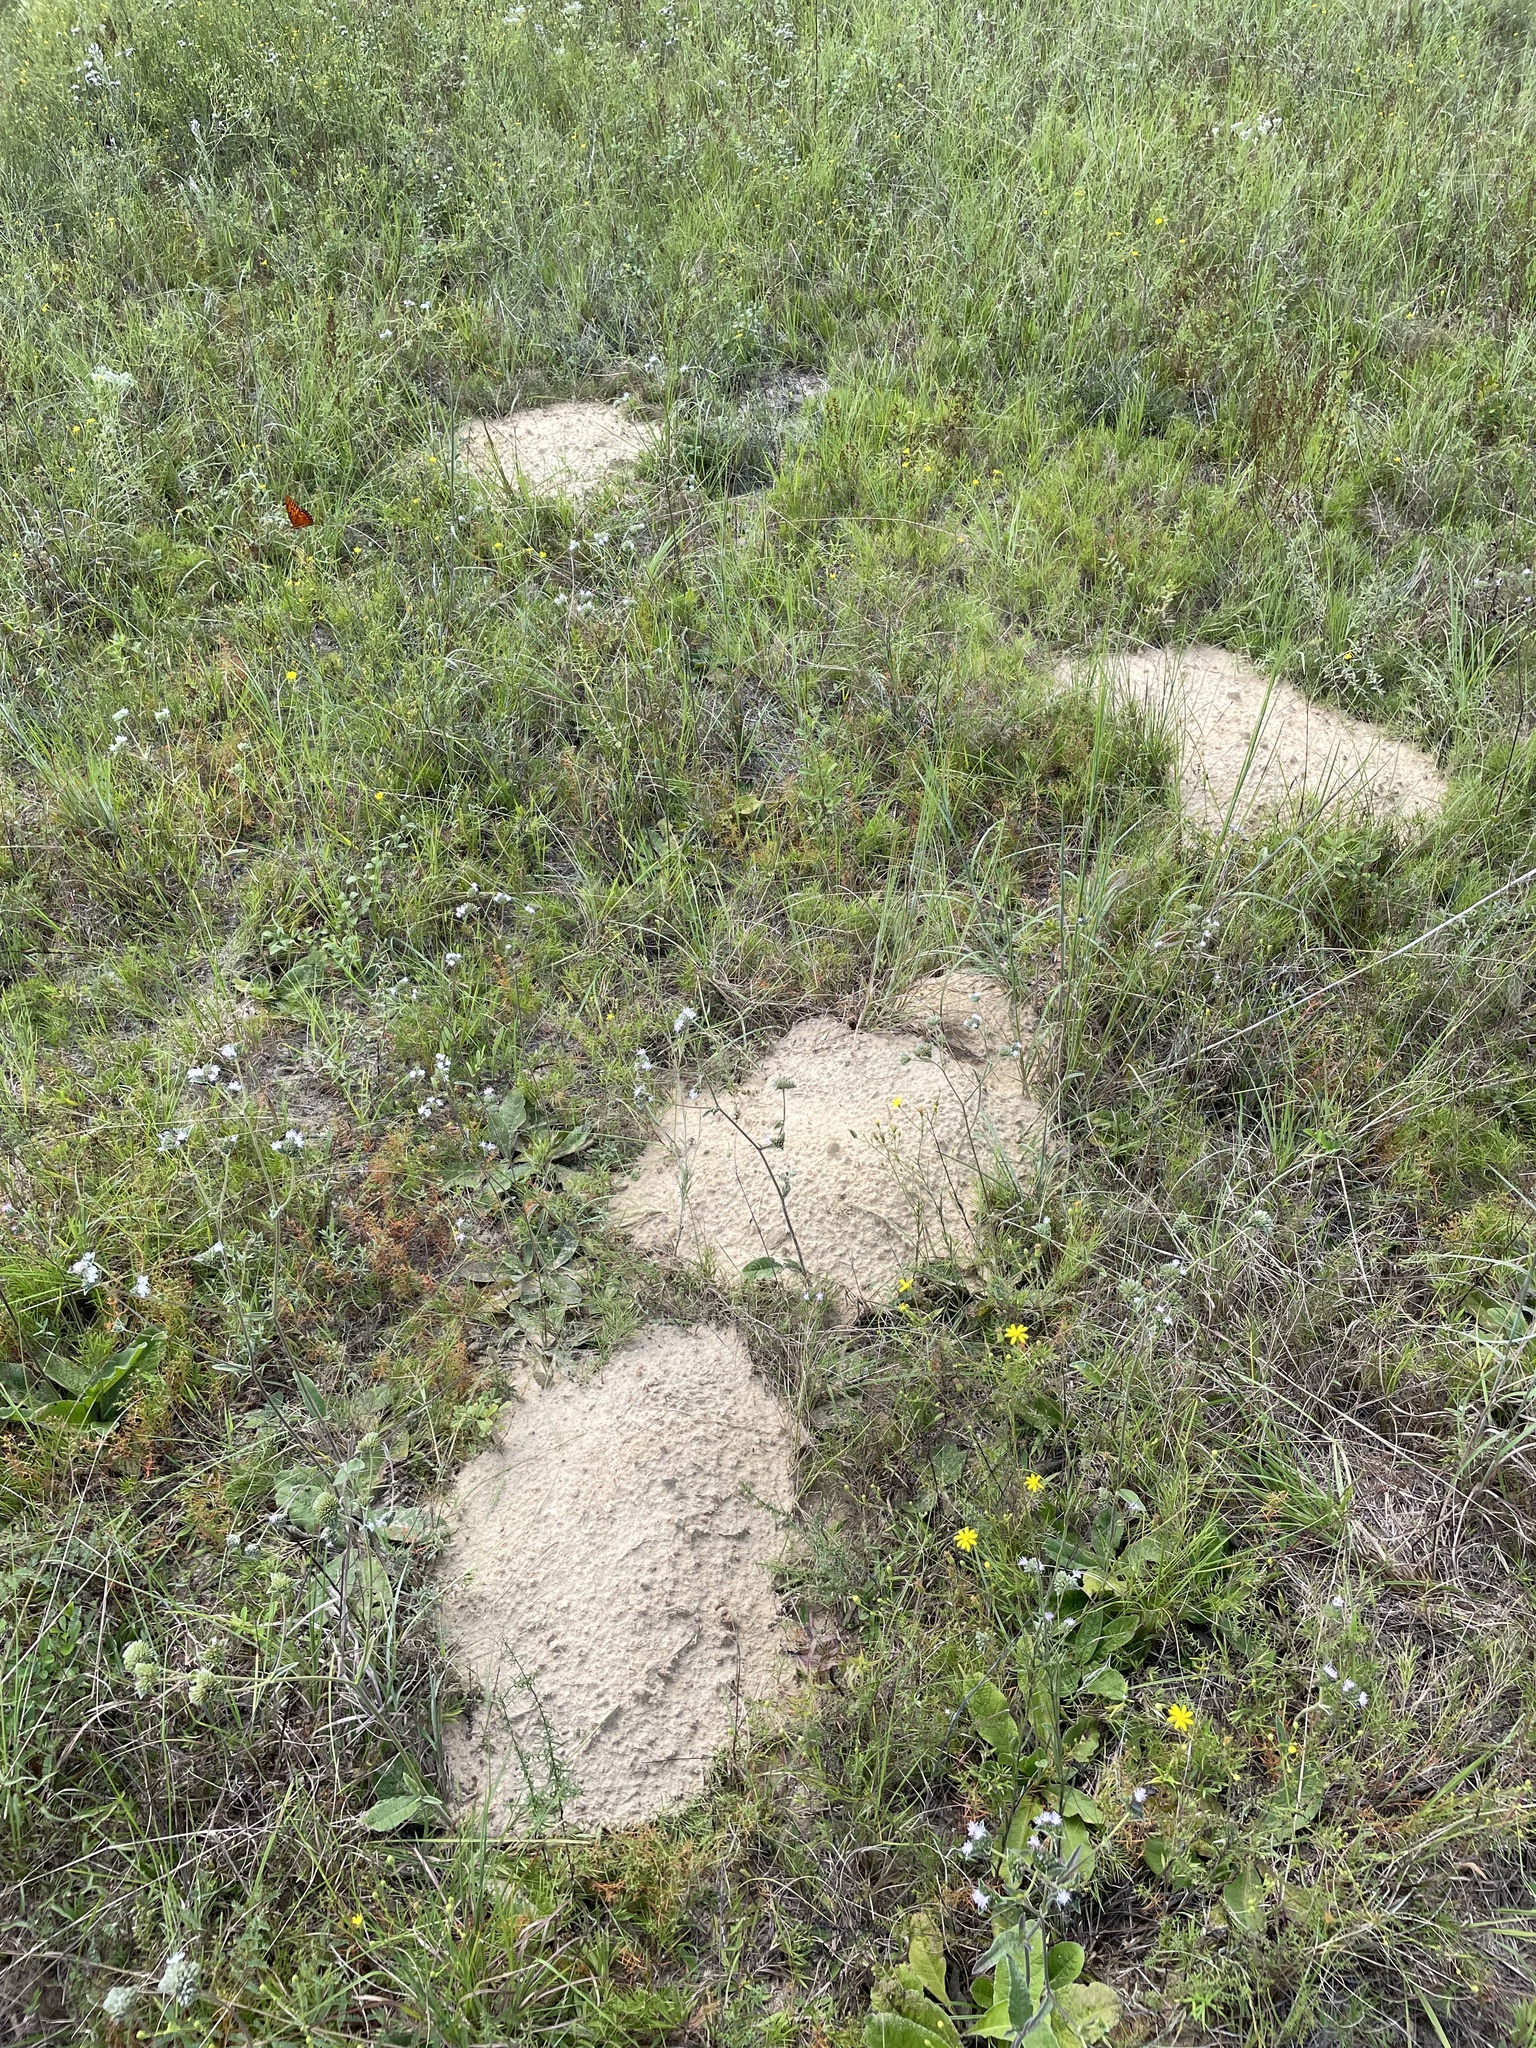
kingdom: Animalia
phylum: Chordata
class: Mammalia
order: Rodentia
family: Geomyidae
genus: Geomys
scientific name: Geomys pinetis
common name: Southeastern pocket gopher
